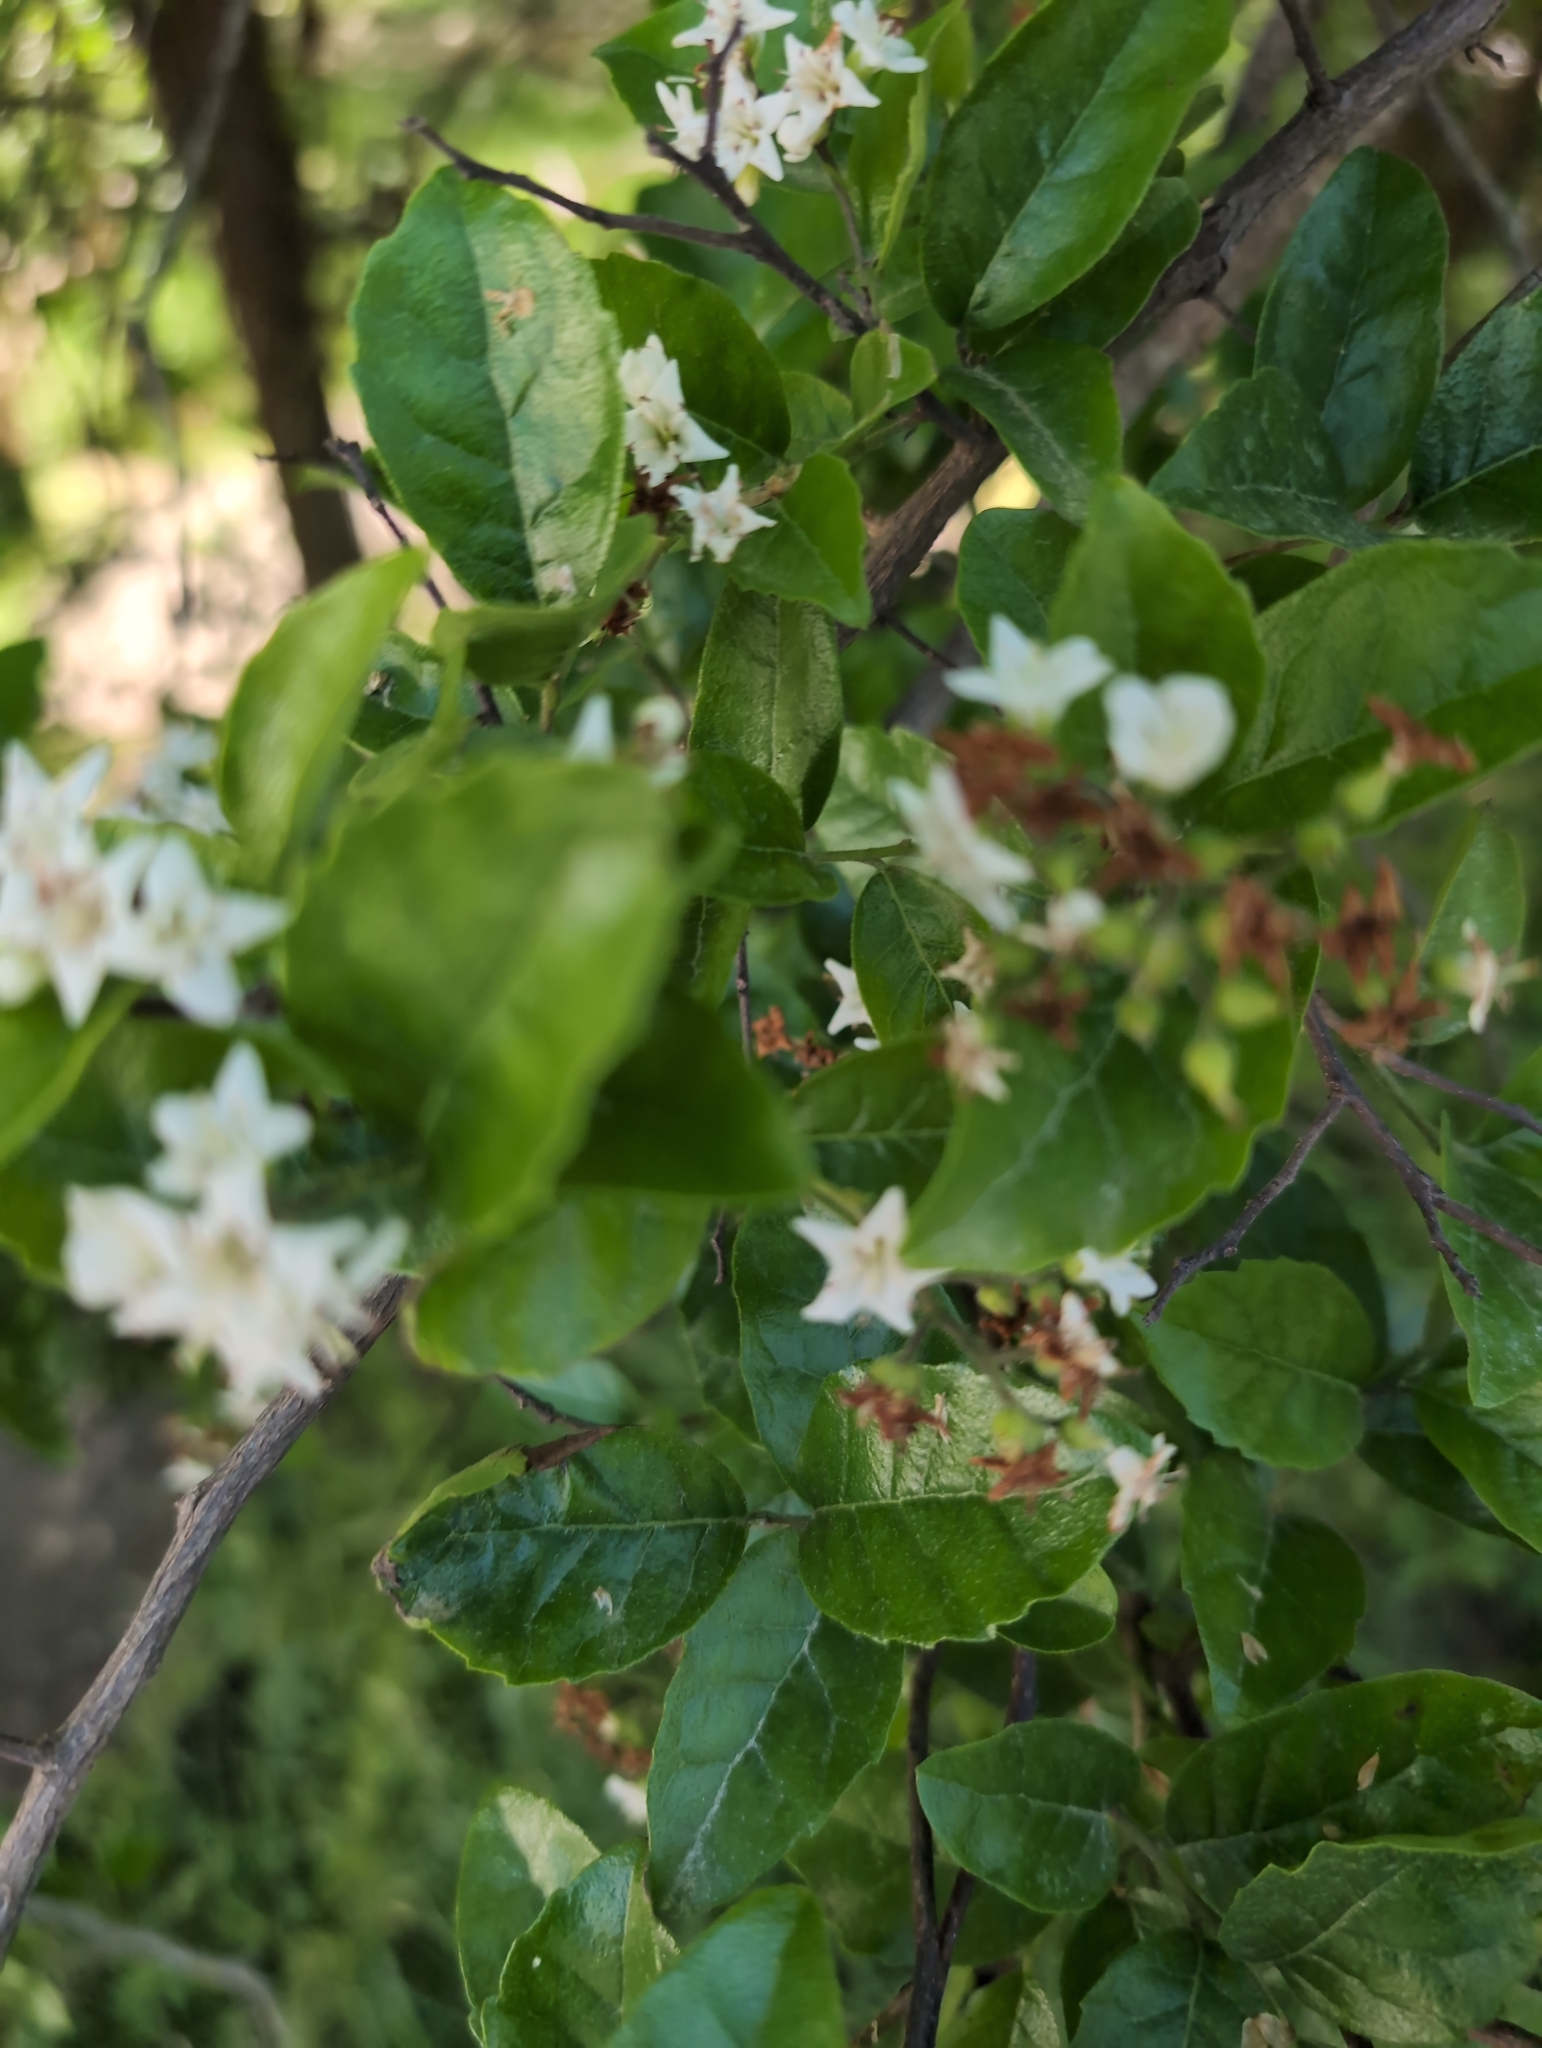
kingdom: Plantae
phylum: Tracheophyta
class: Magnoliopsida
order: Boraginales
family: Ehretiaceae
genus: Ehretia
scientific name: Ehretia anacua
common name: Sugarberry
